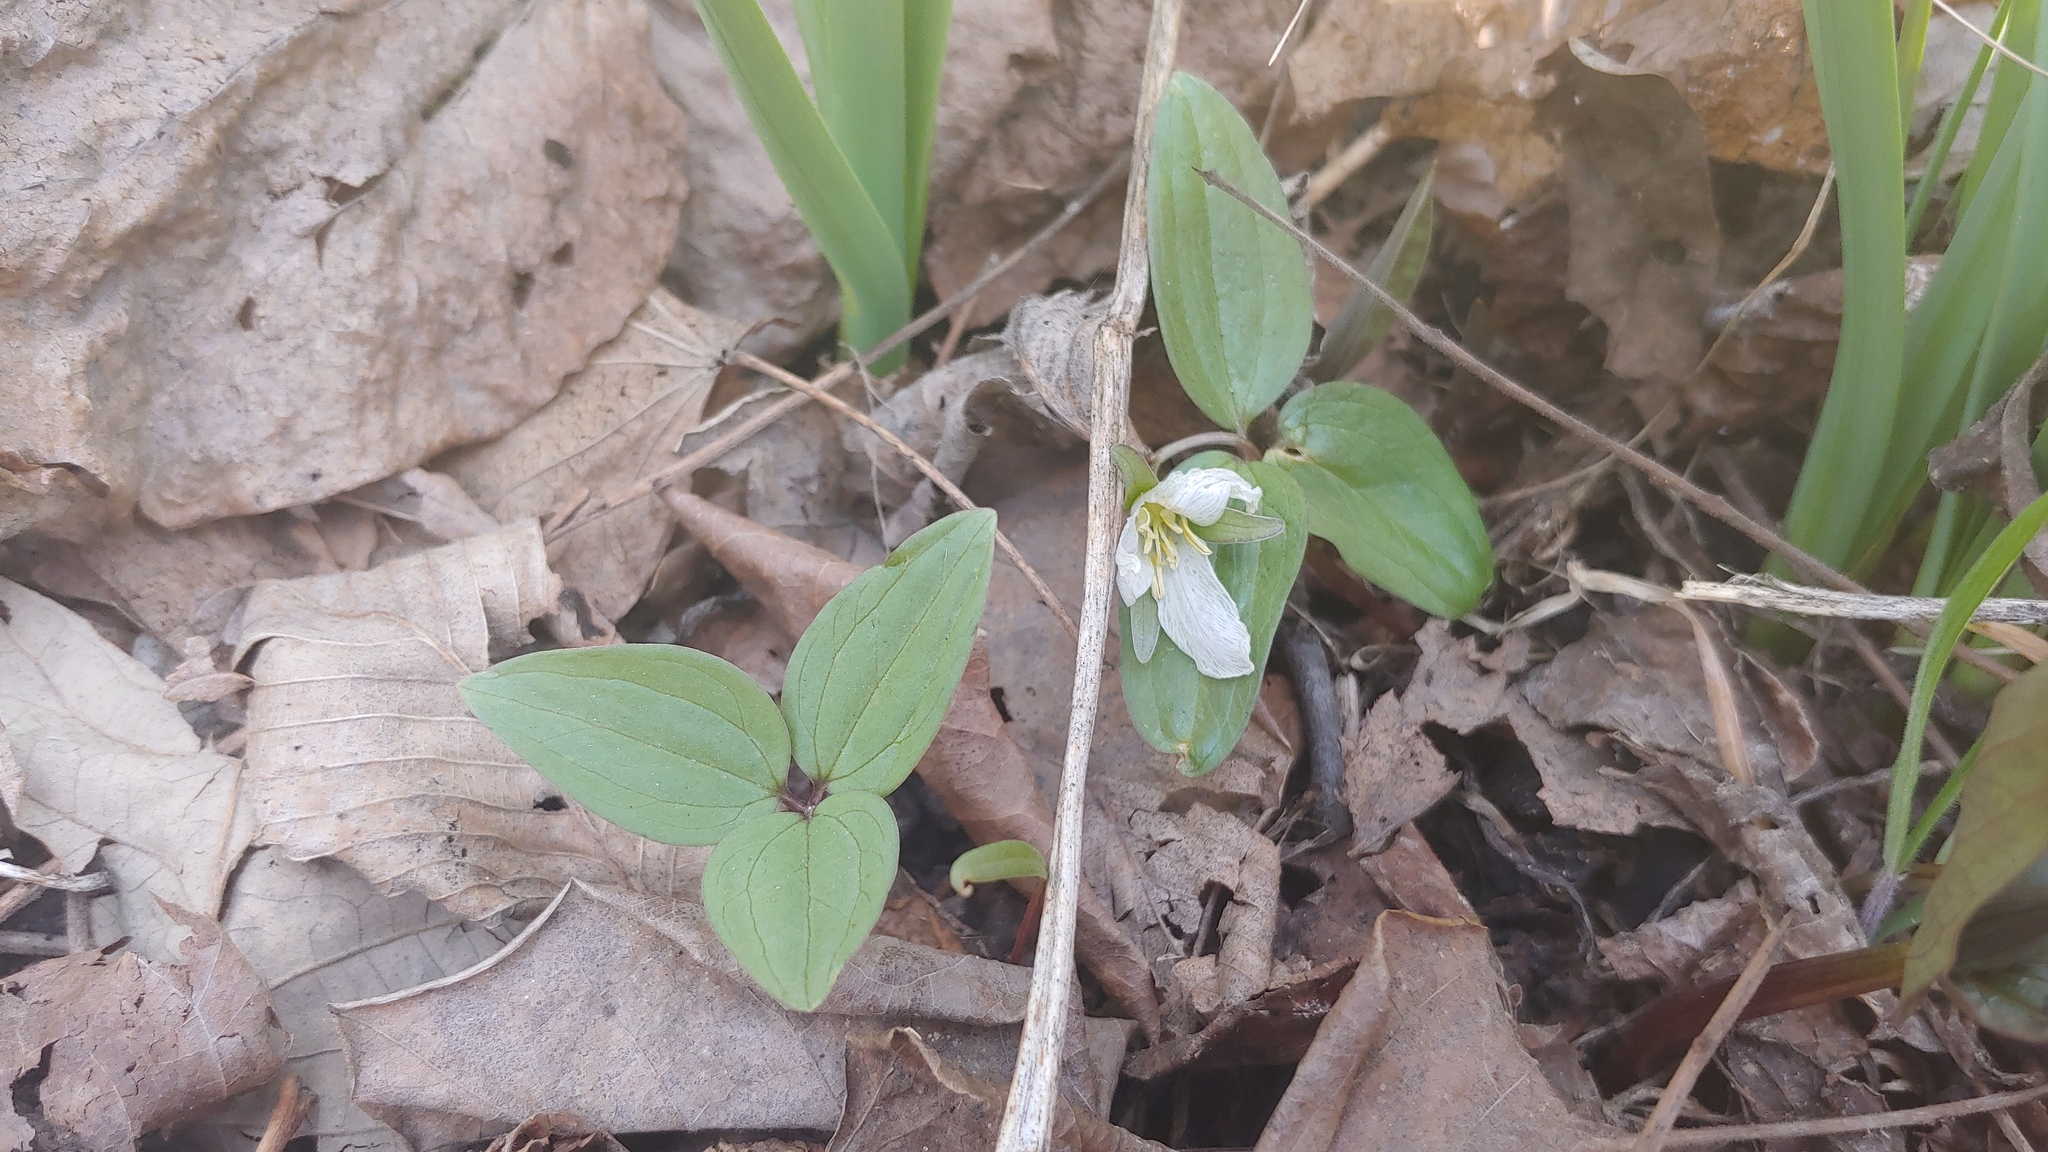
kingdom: Plantae
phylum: Tracheophyta
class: Liliopsida
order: Liliales
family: Melanthiaceae
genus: Trillium
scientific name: Trillium nivale
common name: Dwarf white trillium
